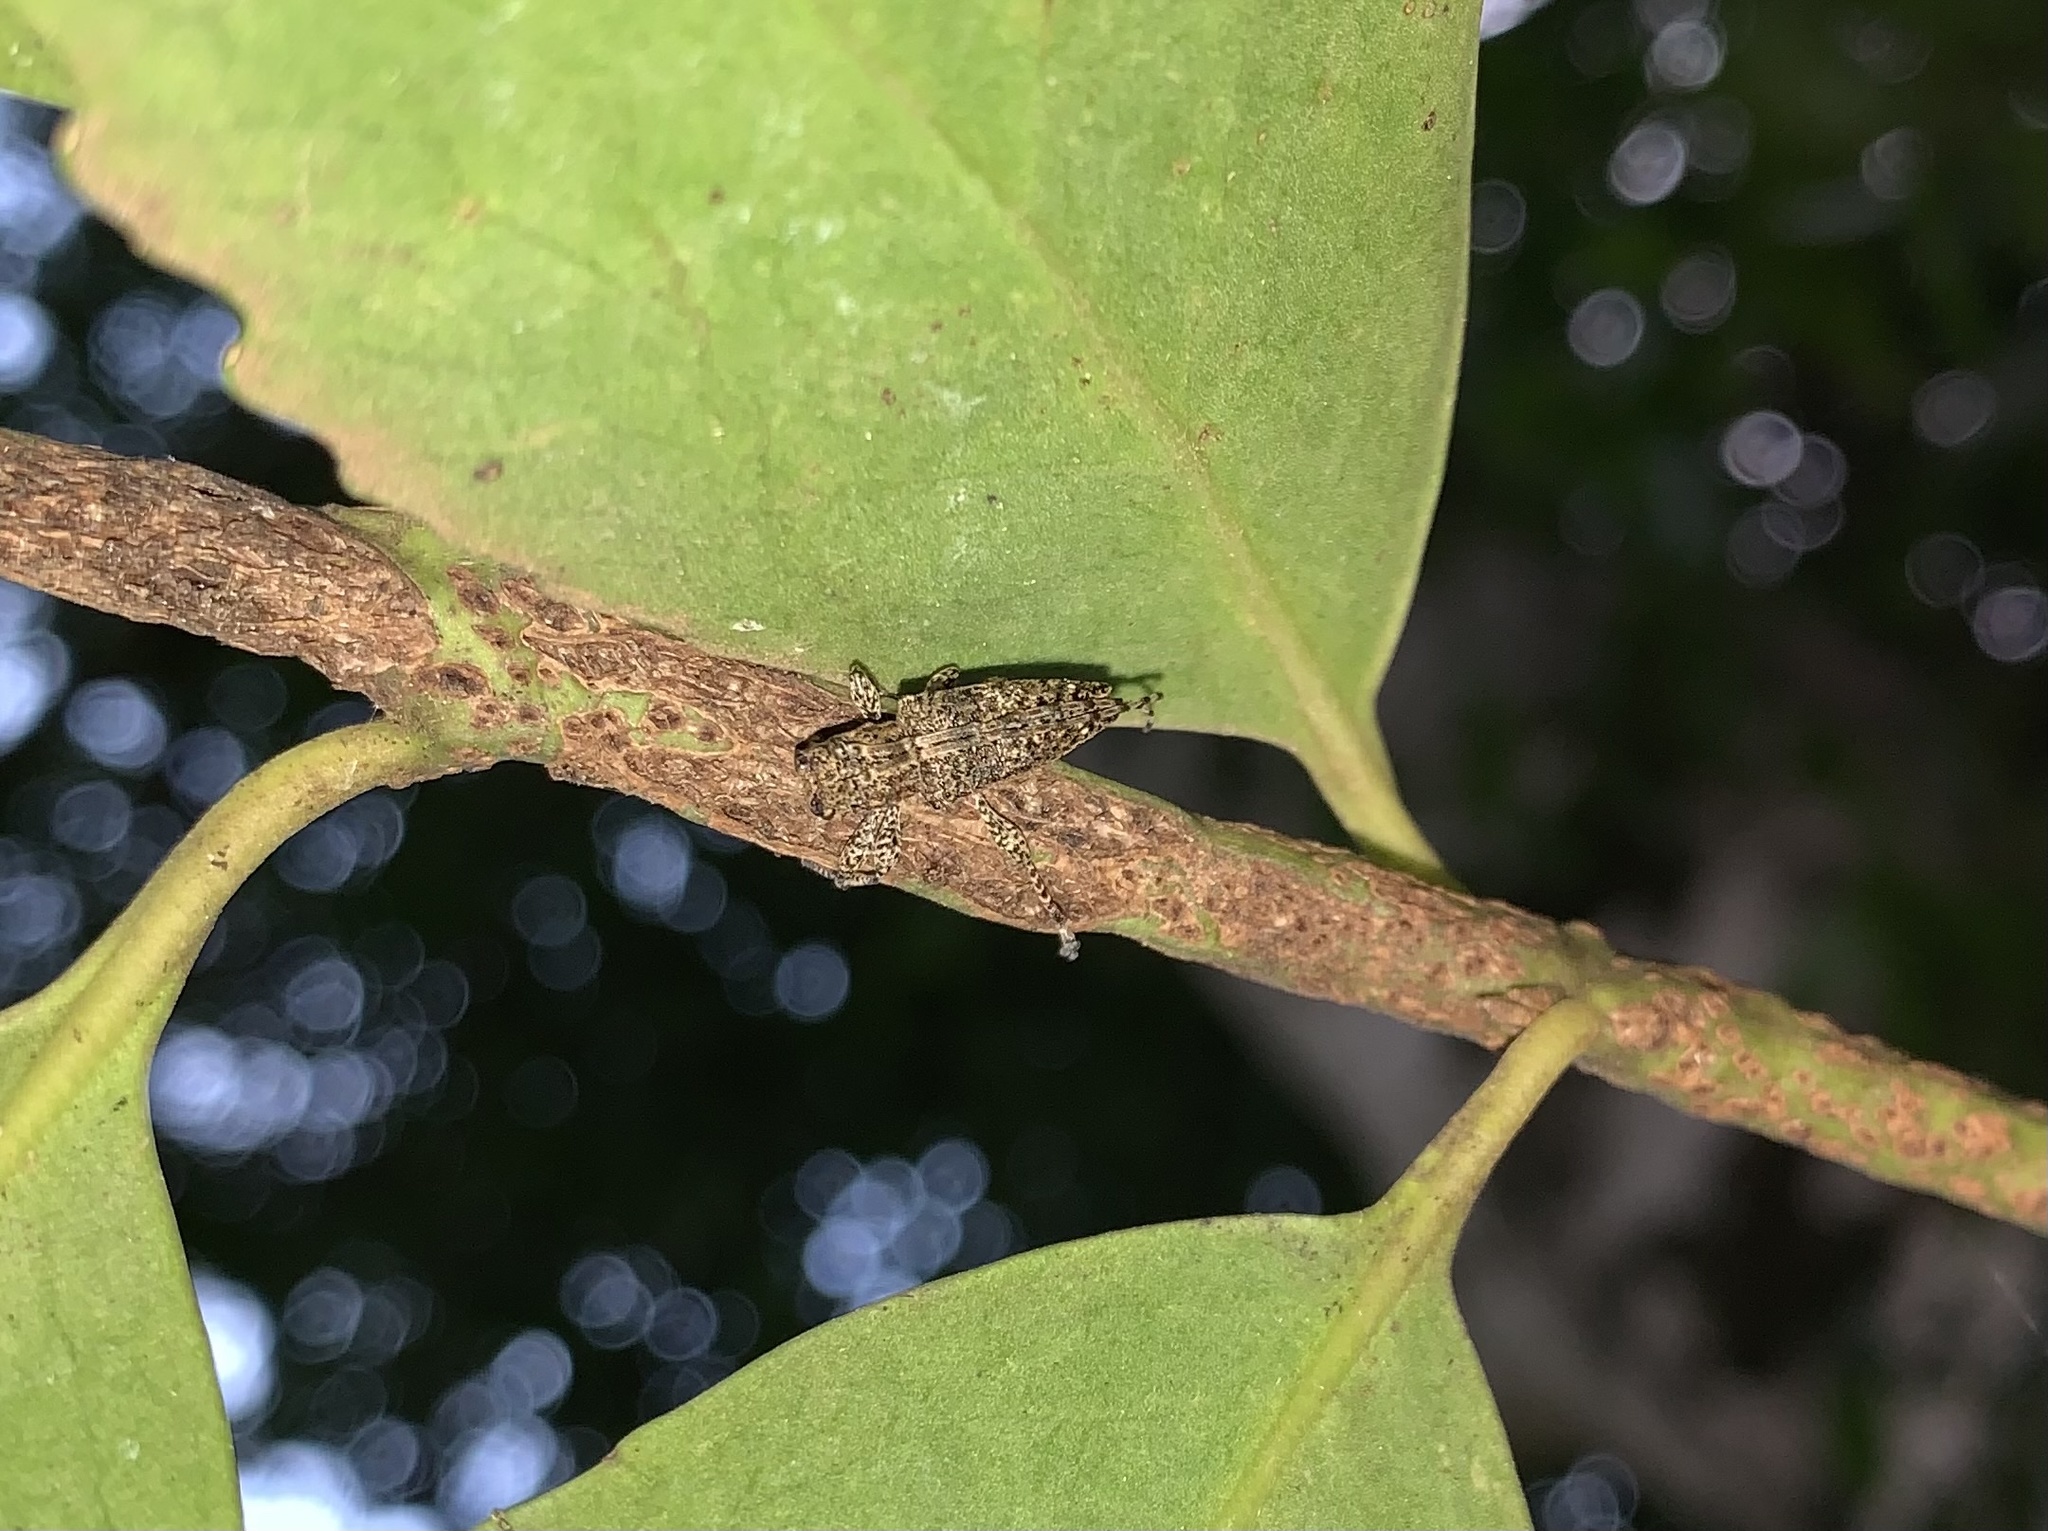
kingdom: Animalia
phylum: Arthropoda
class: Insecta
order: Coleoptera
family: Cerambycidae
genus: Aconopterus
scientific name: Aconopterus cristatipennis
